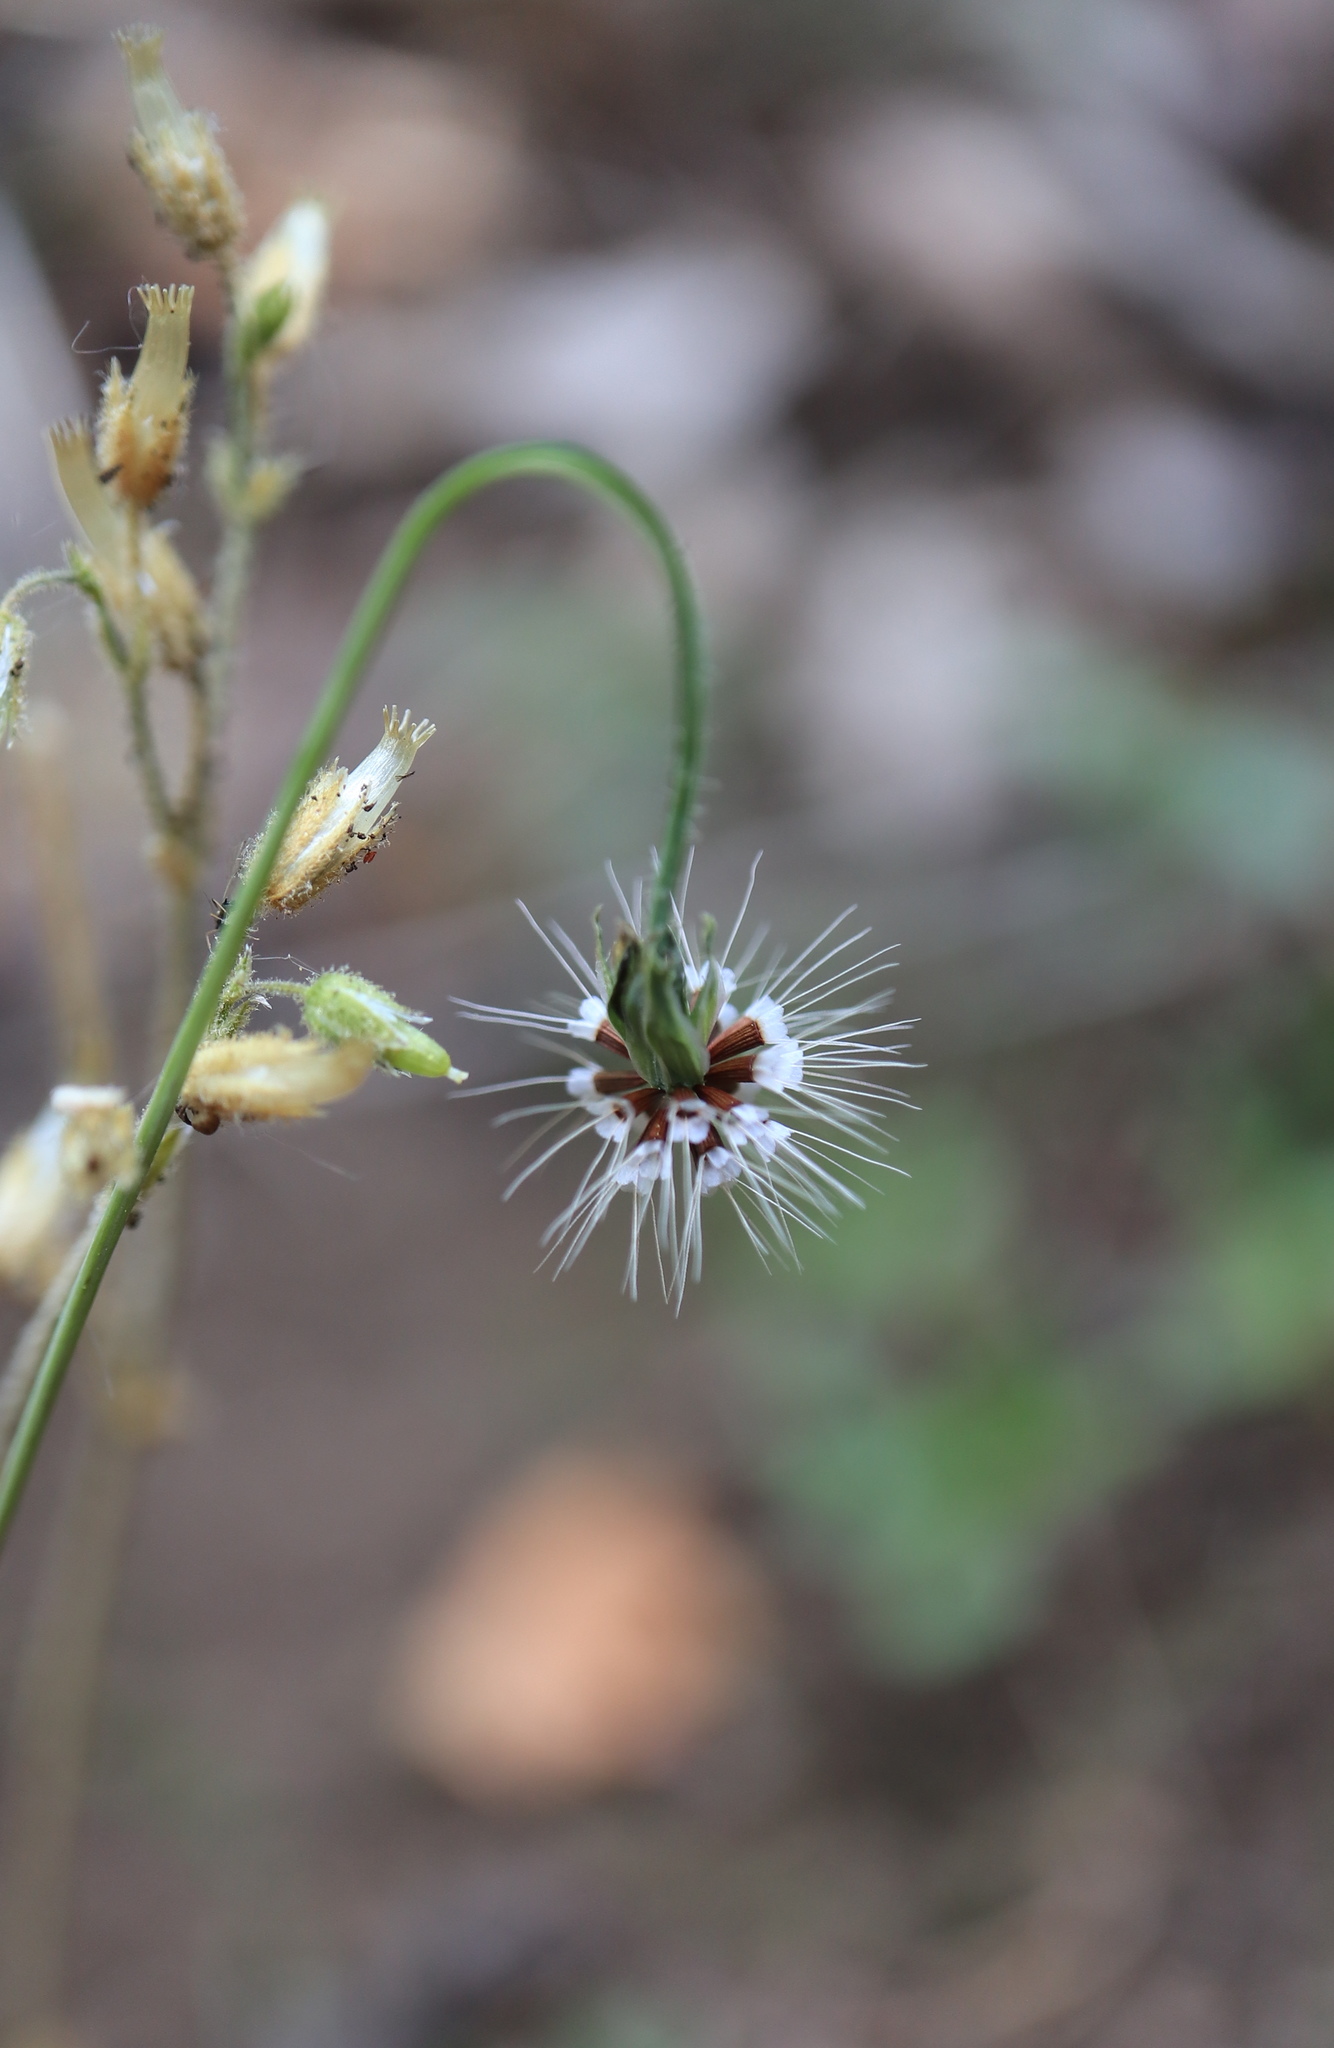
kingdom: Plantae
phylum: Tracheophyta
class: Magnoliopsida
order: Asterales
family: Asteraceae
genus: Krigia
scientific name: Krigia virginica
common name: Virginia dwarf-dandelion
